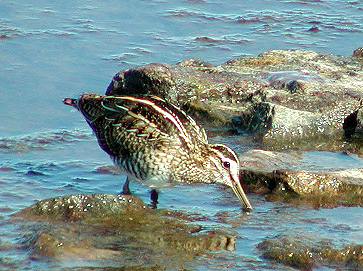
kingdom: Animalia
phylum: Chordata
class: Aves
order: Charadriiformes
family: Scolopacidae
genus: Gallinago
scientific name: Gallinago gallinago
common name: Common snipe
